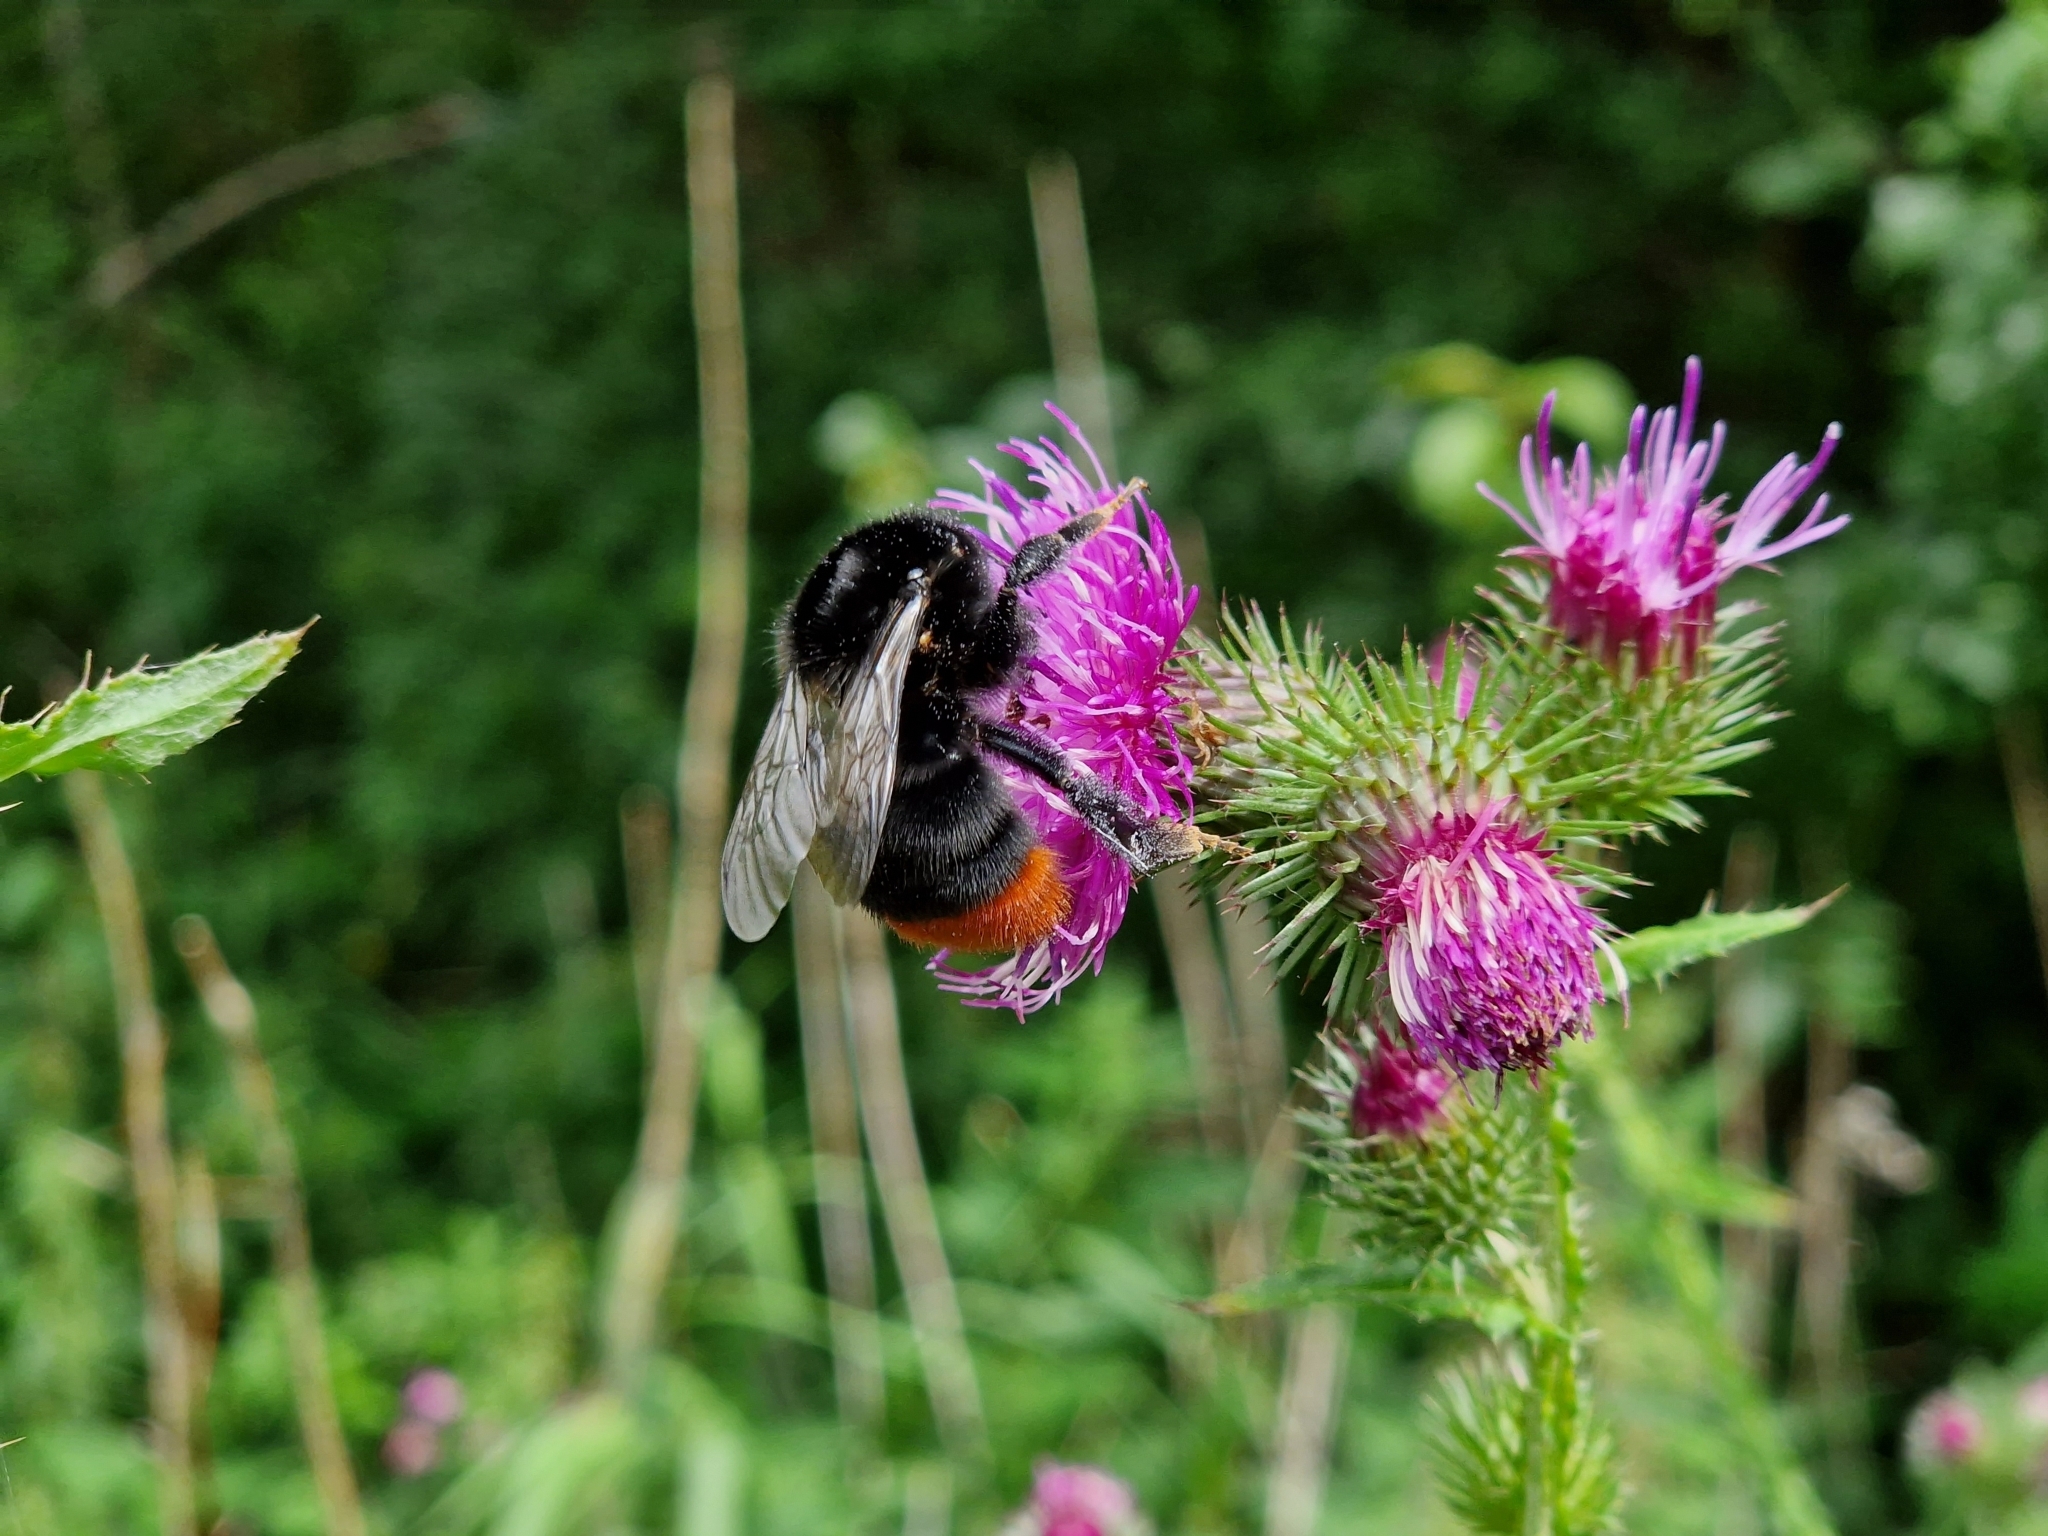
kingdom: Animalia
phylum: Arthropoda
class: Insecta
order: Hymenoptera
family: Apidae
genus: Bombus
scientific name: Bombus lapidarius
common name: Large red-tailed humble-bee
